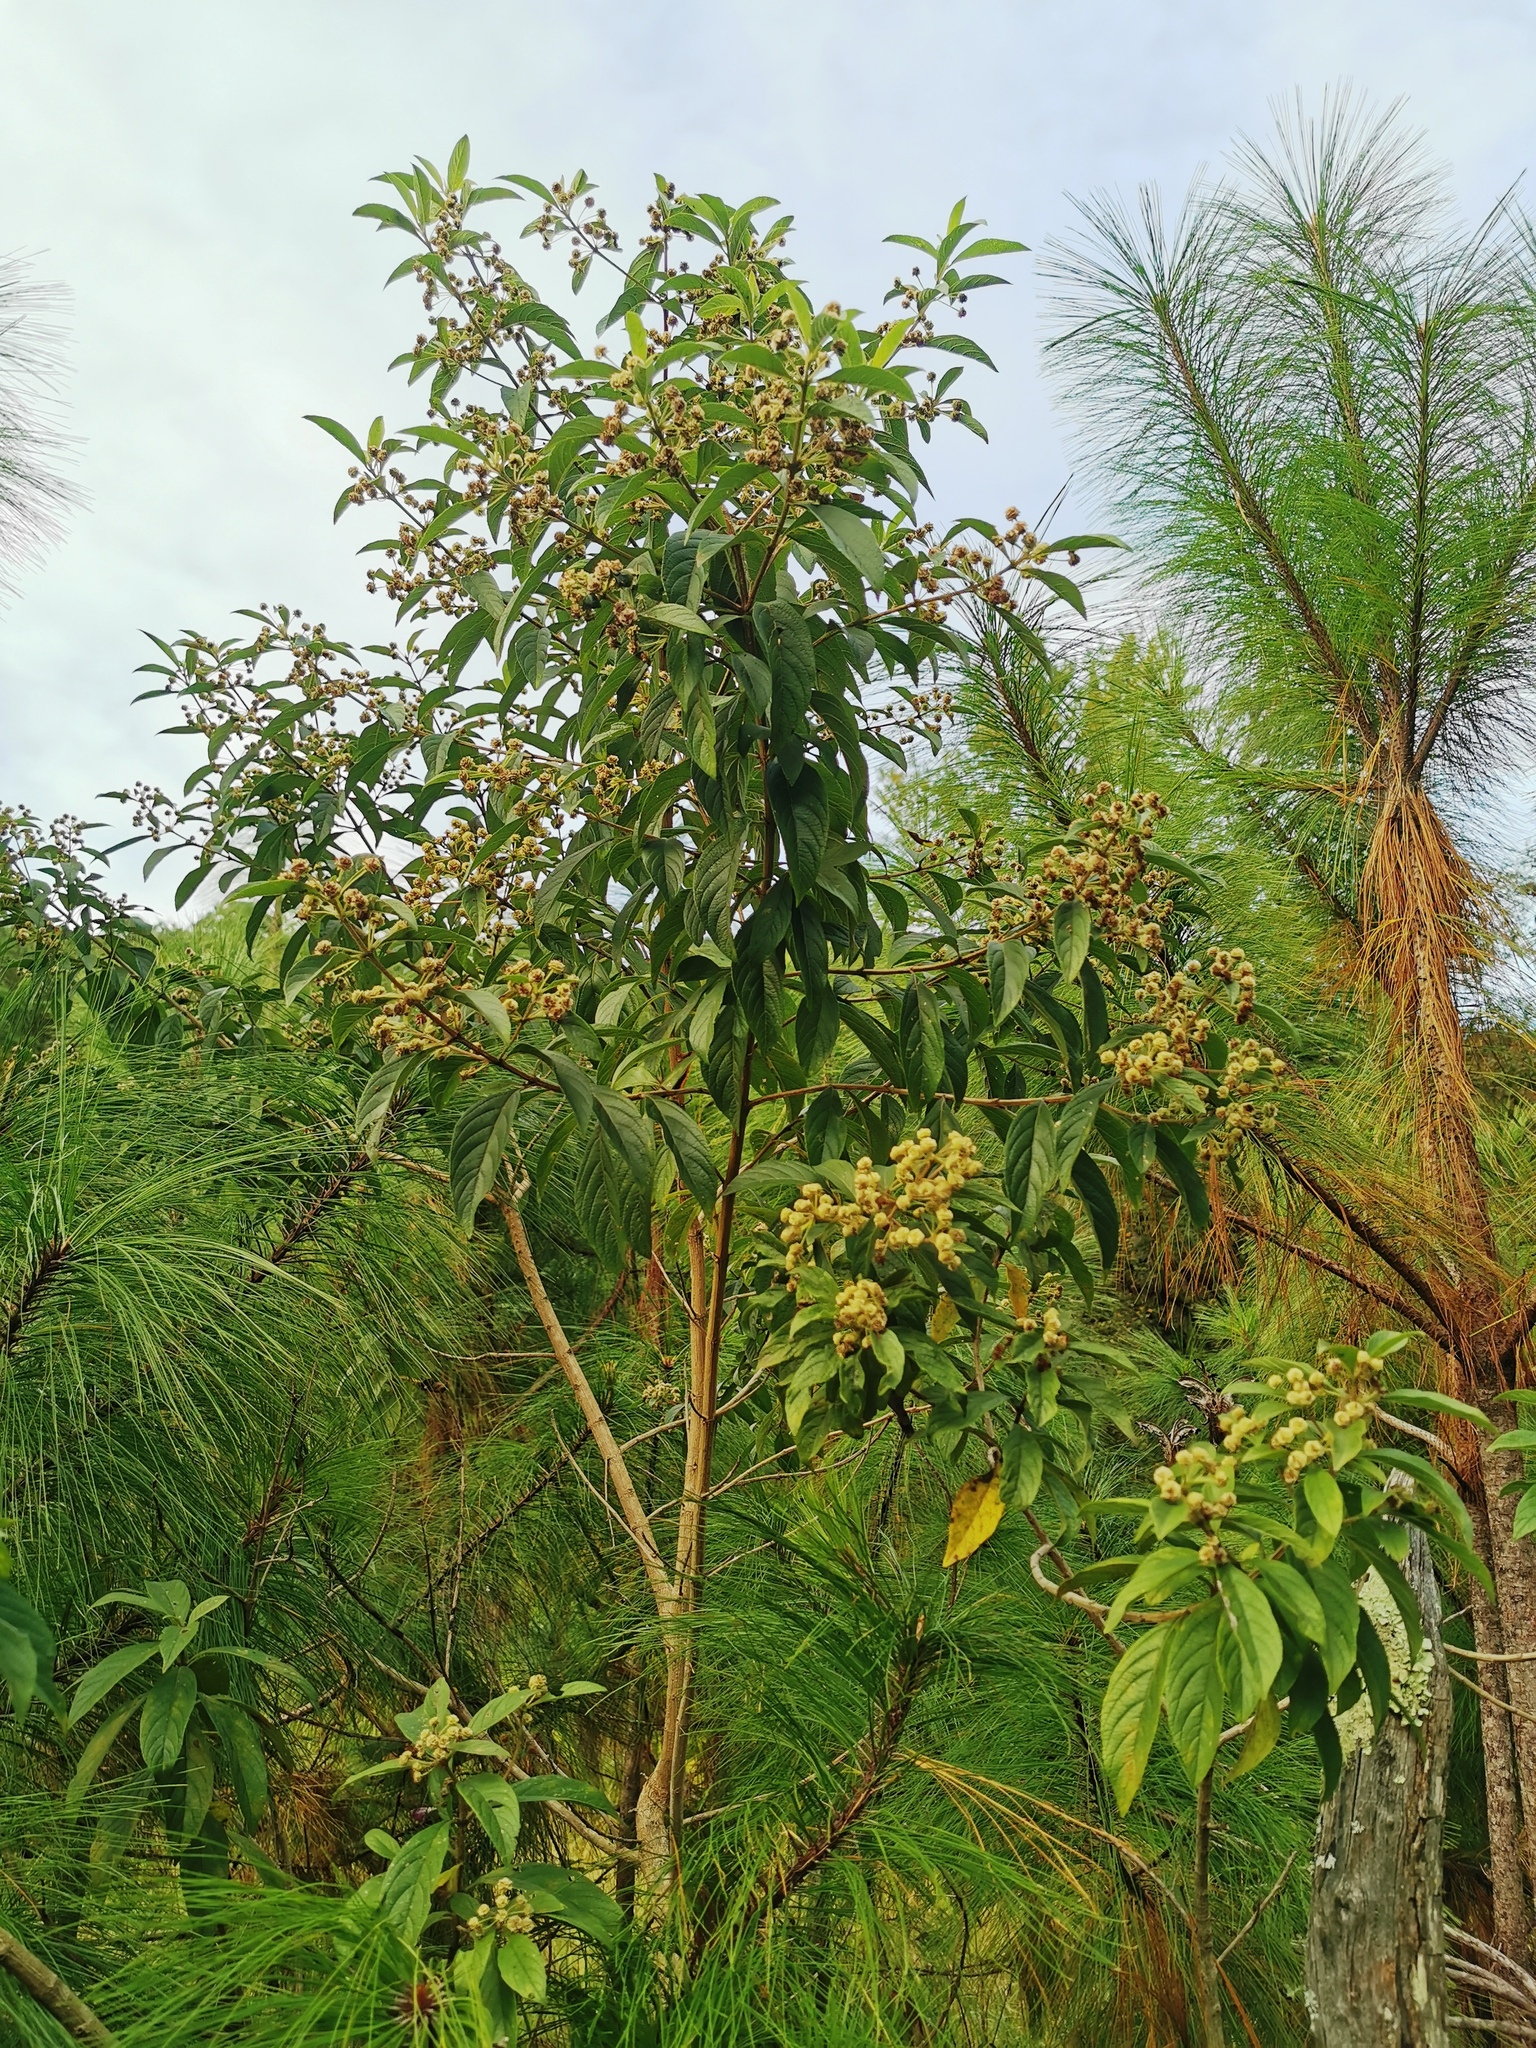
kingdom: Plantae
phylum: Tracheophyta
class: Magnoliopsida
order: Lamiales
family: Verbenaceae
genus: Lippia
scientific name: Lippia myriocephala
